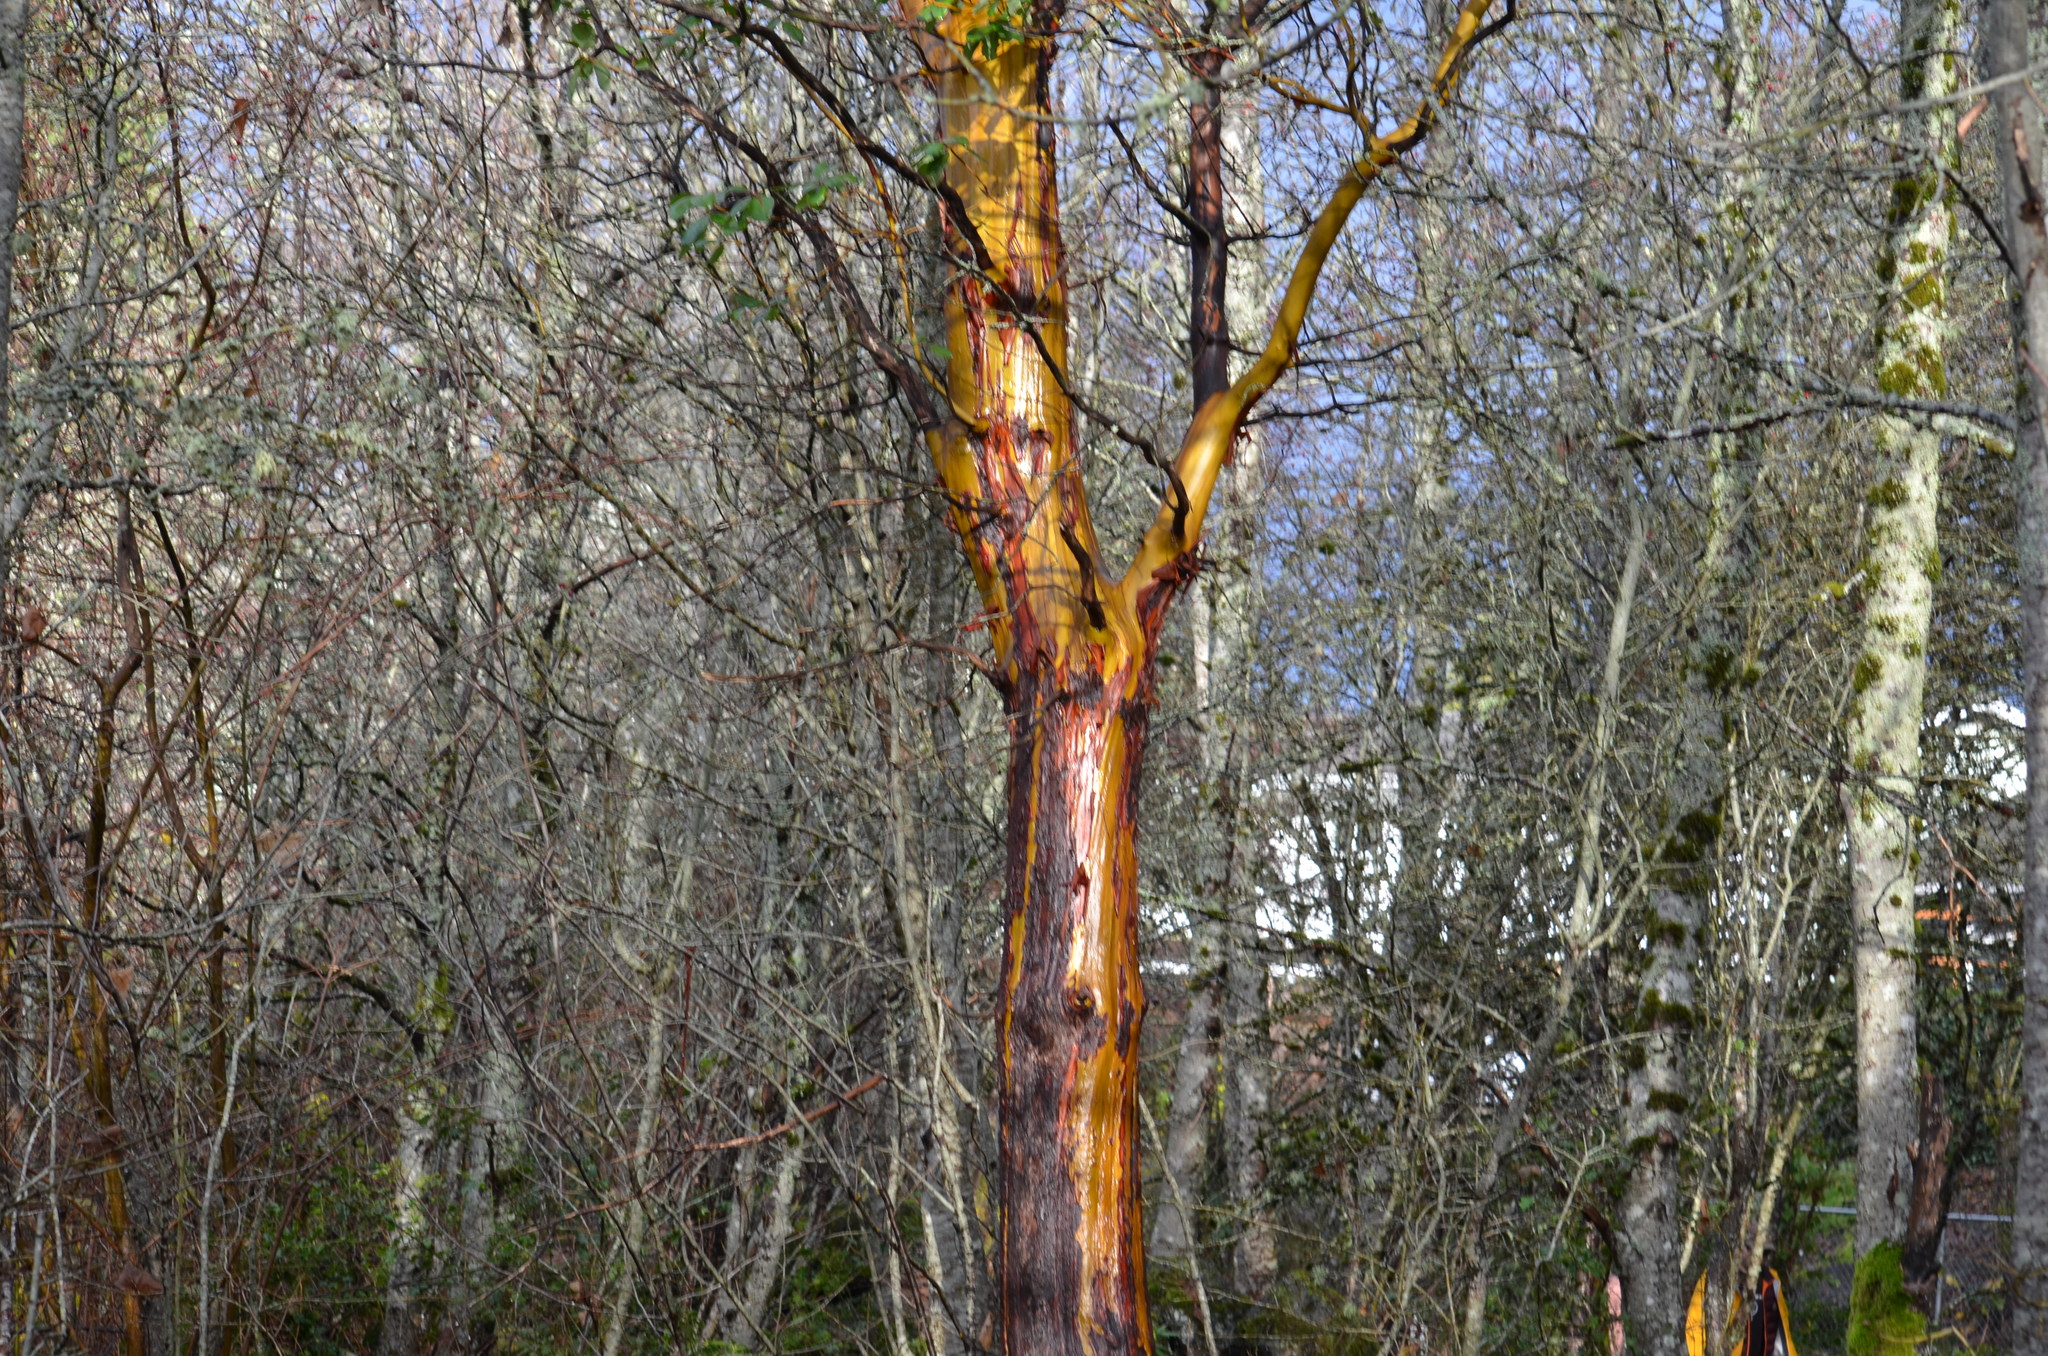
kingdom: Plantae
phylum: Tracheophyta
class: Magnoliopsida
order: Ericales
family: Ericaceae
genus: Arbutus
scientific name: Arbutus menziesii
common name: Pacific madrone
